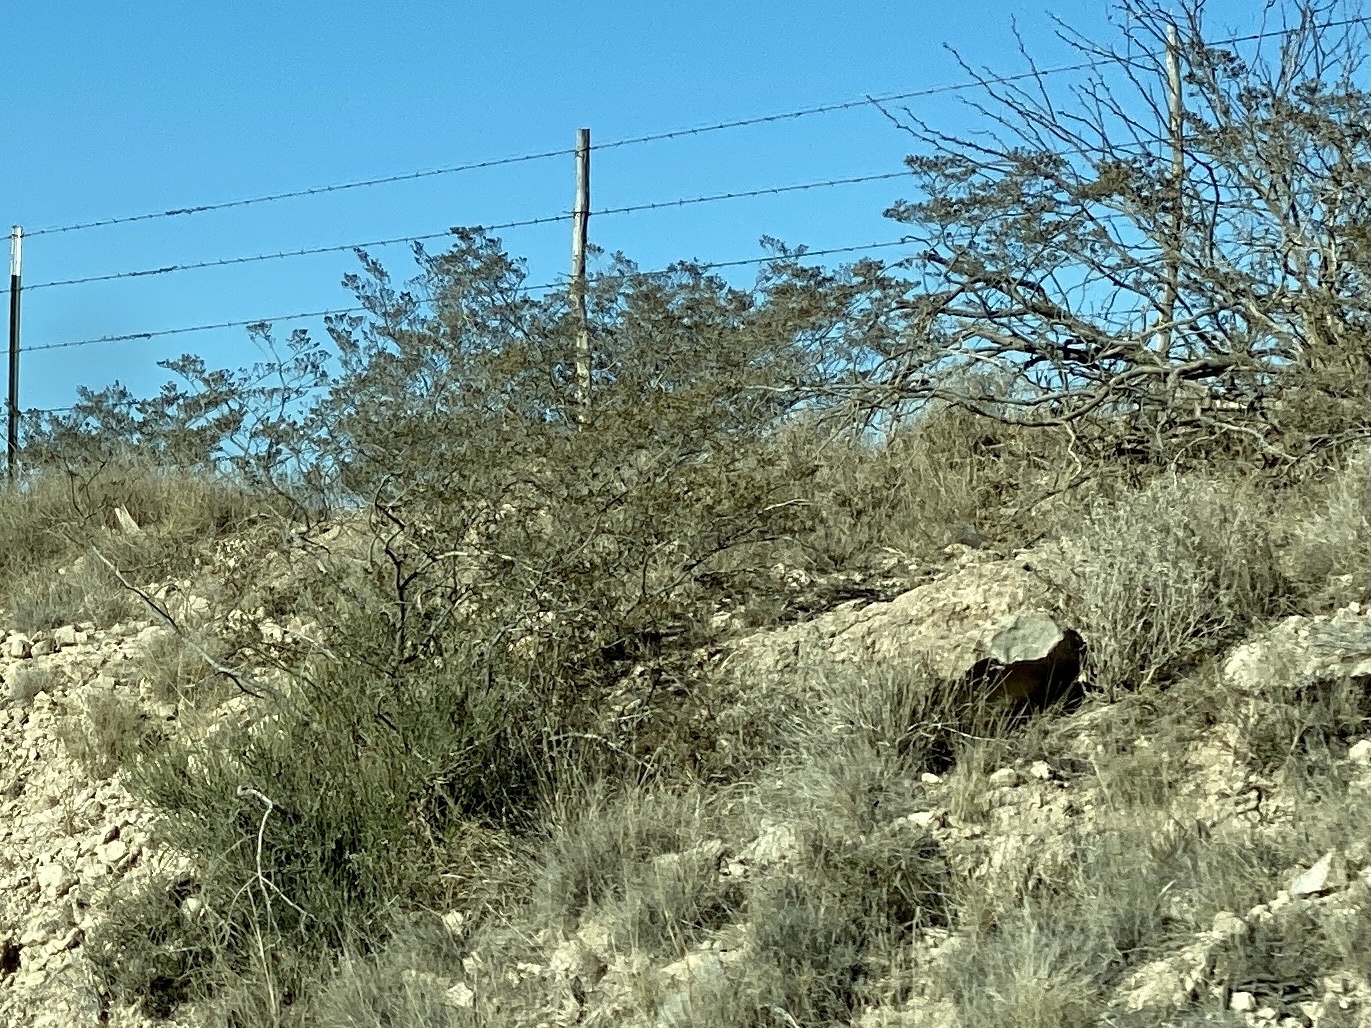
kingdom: Plantae
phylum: Tracheophyta
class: Magnoliopsida
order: Zygophyllales
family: Zygophyllaceae
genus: Larrea
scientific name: Larrea tridentata
